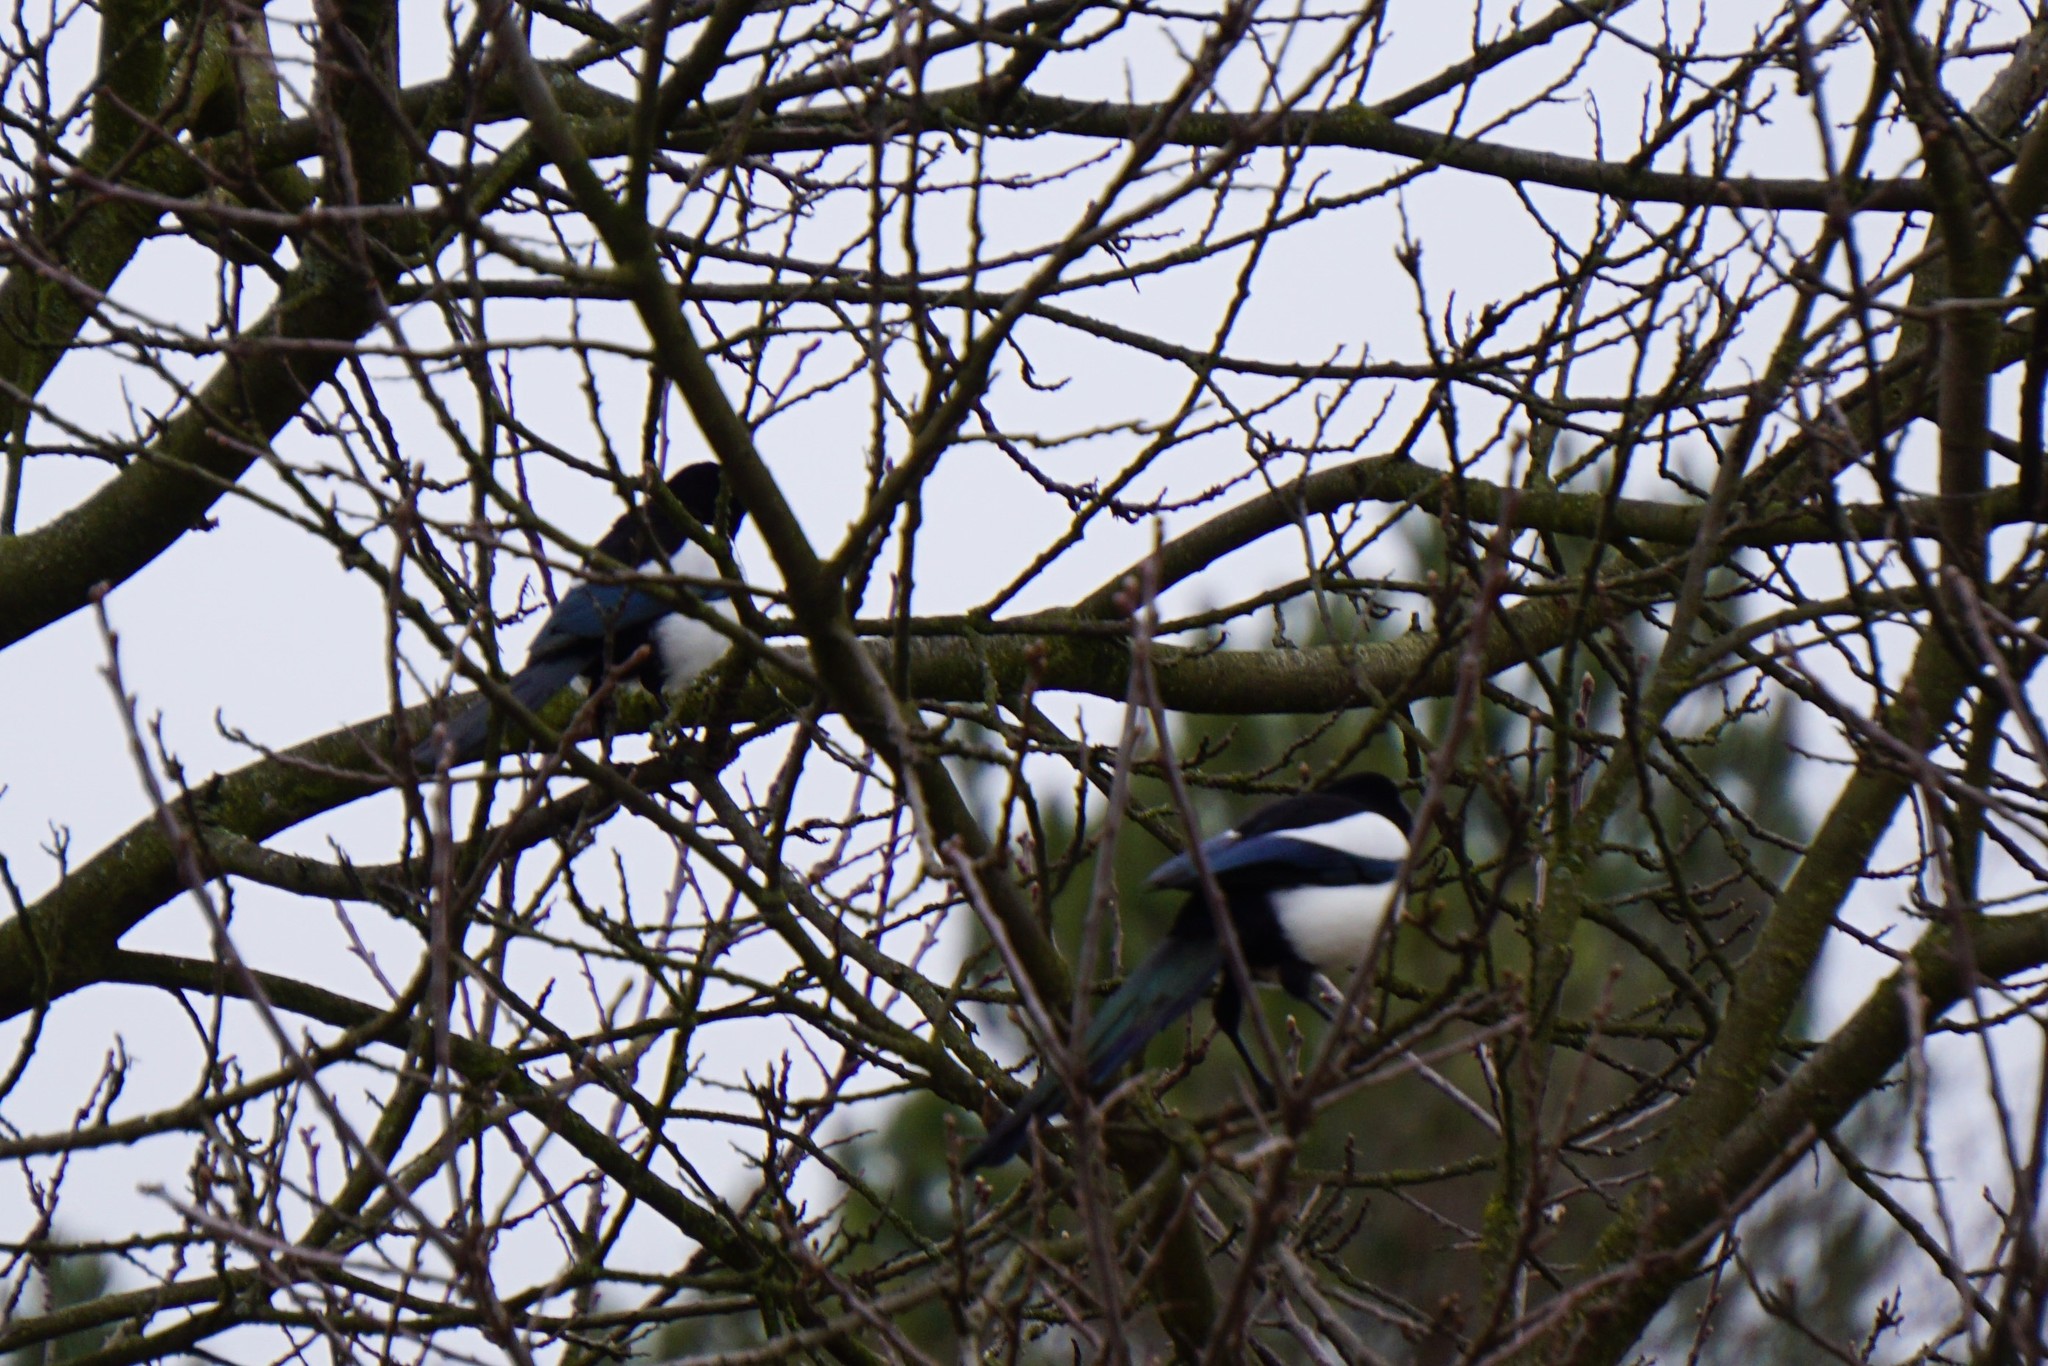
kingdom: Animalia
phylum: Chordata
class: Aves
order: Passeriformes
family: Corvidae
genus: Pica
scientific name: Pica pica
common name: Eurasian magpie
